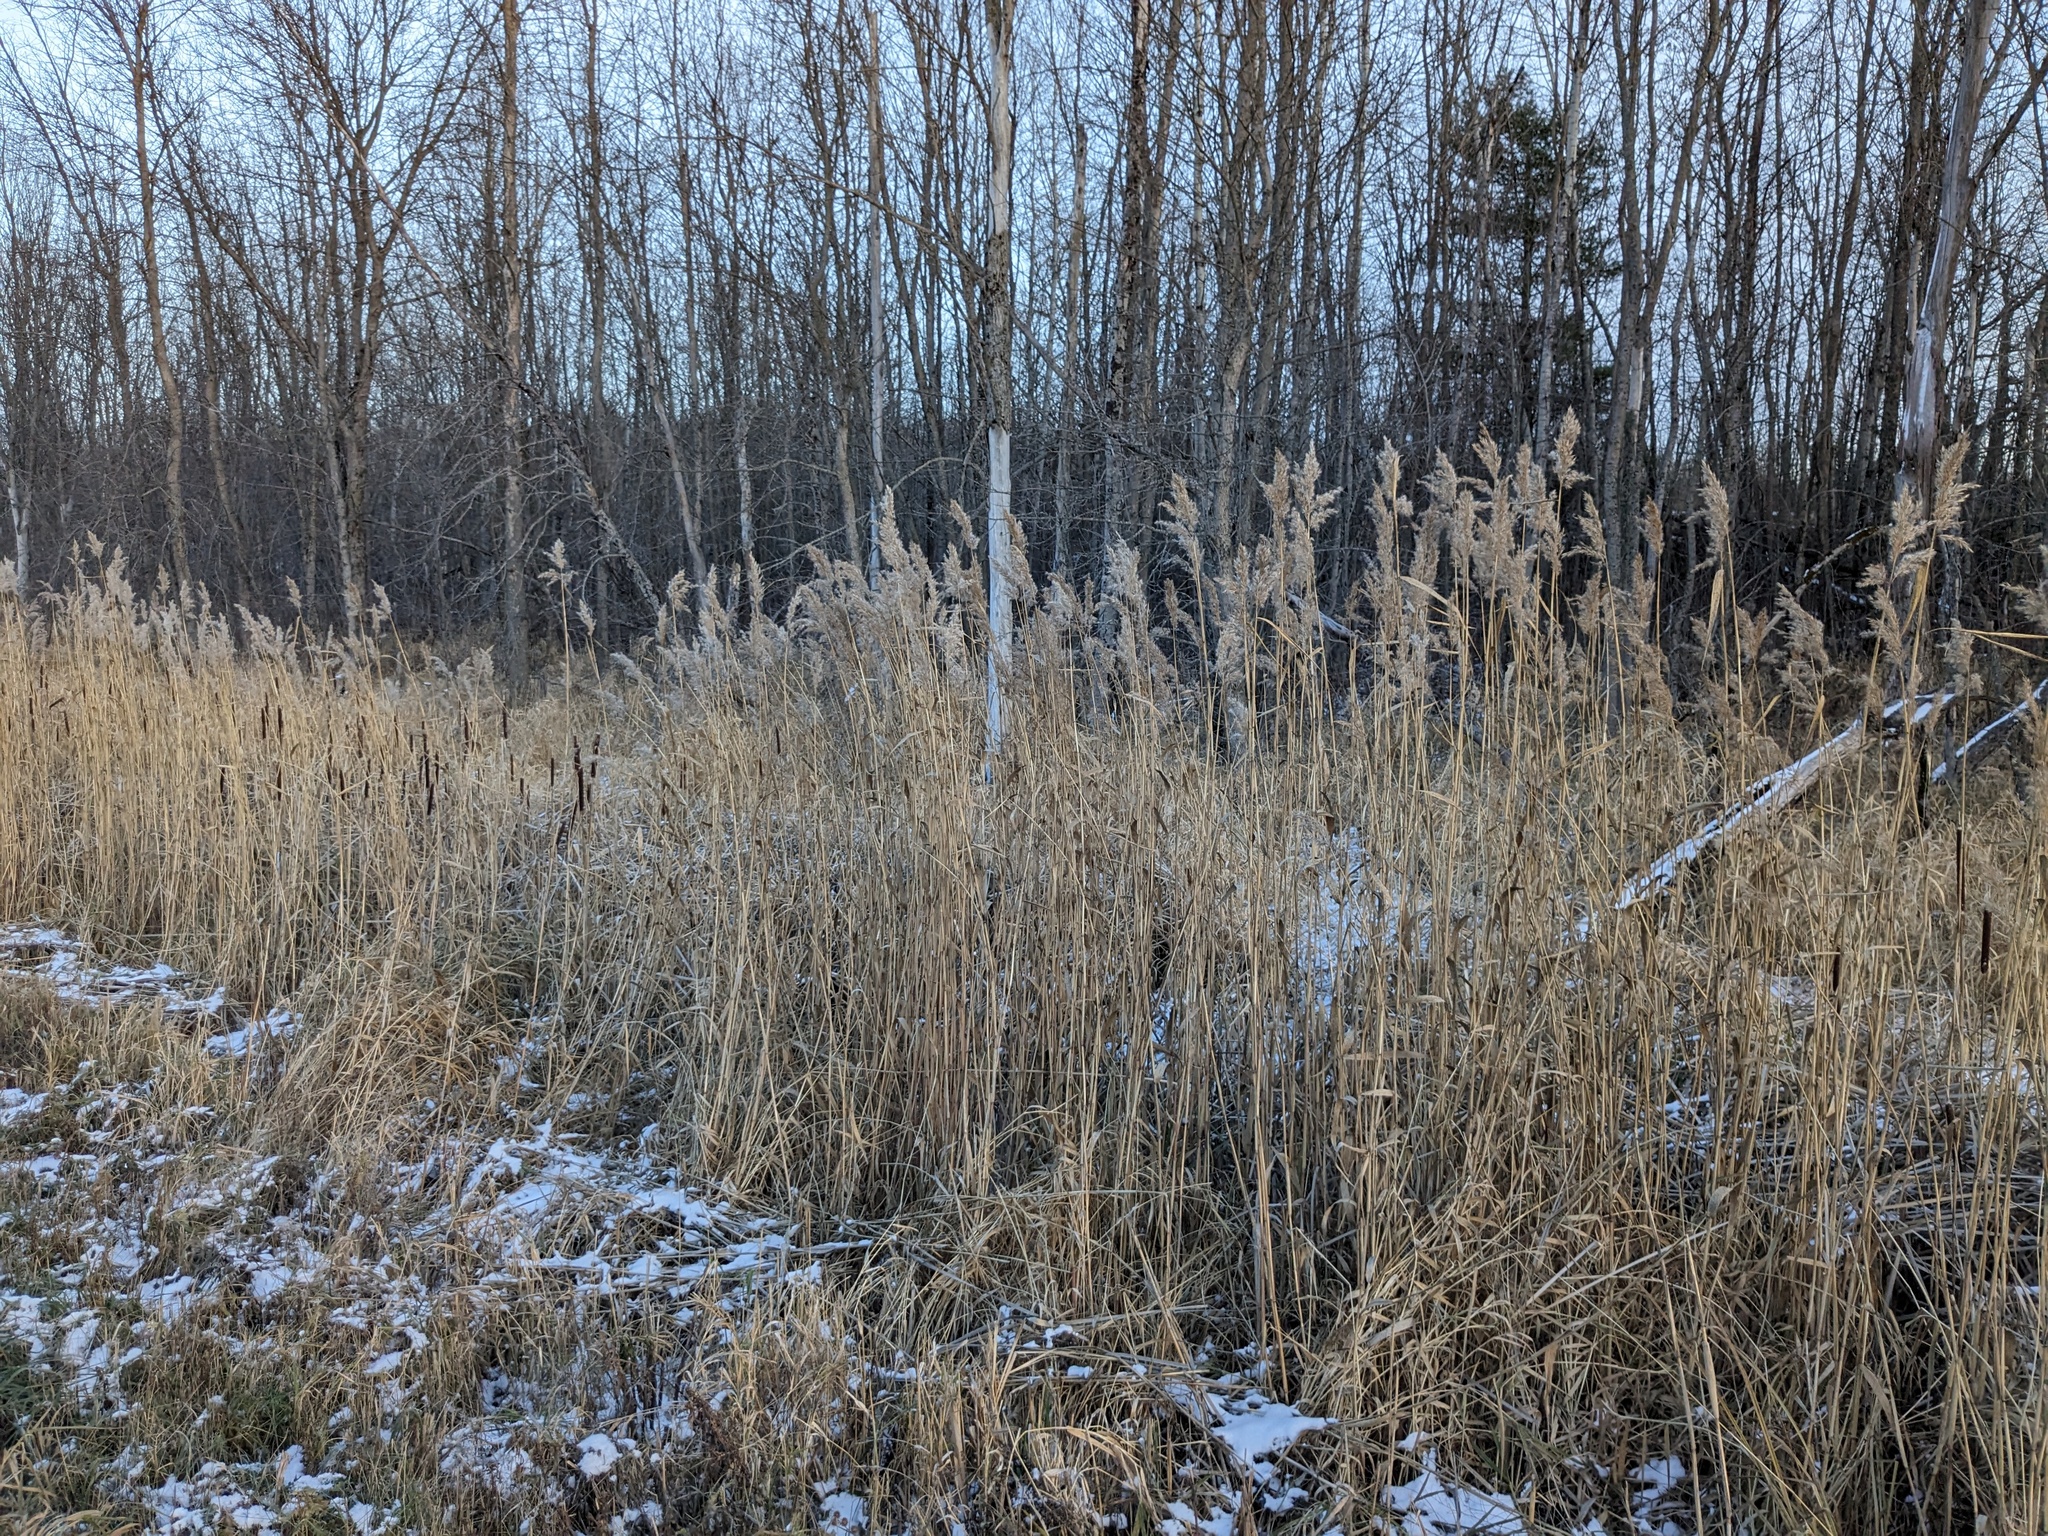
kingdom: Plantae
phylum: Tracheophyta
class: Liliopsida
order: Poales
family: Poaceae
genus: Phragmites
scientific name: Phragmites australis
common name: Common reed
